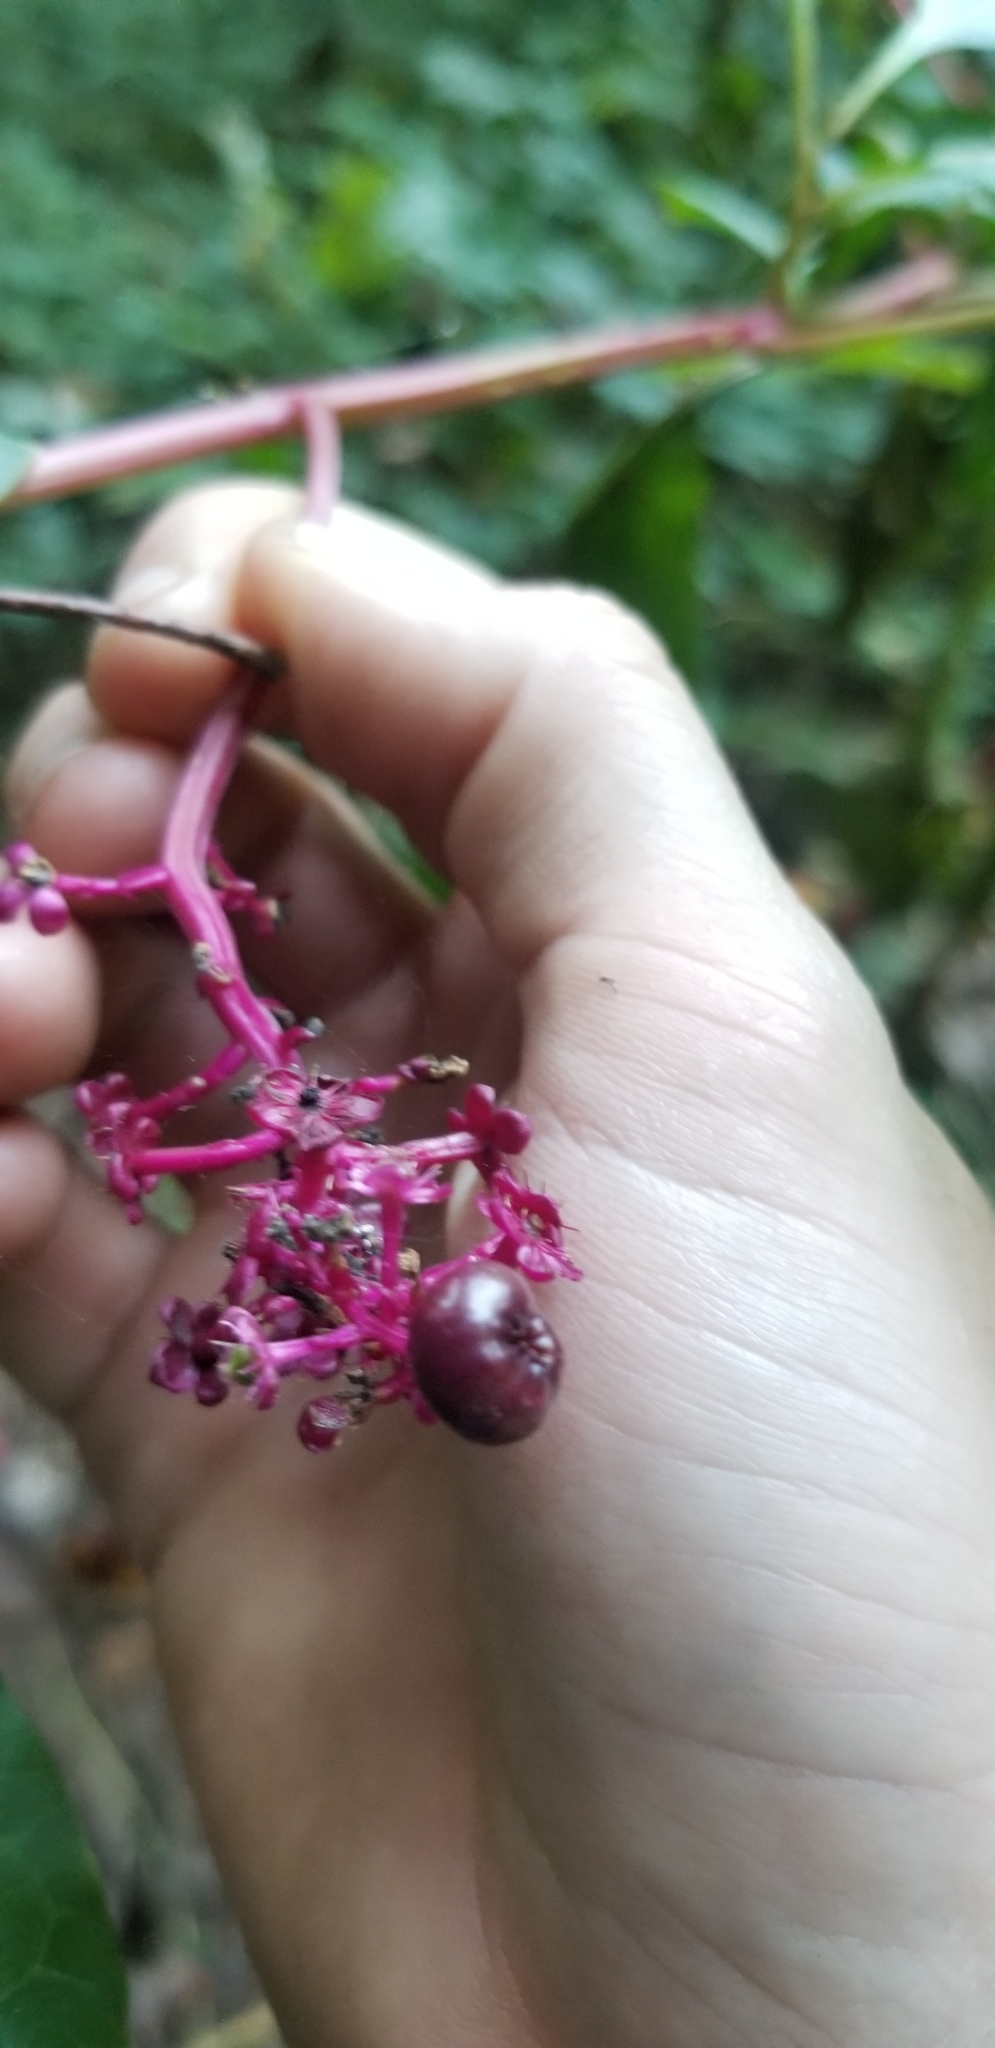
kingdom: Plantae
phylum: Tracheophyta
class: Magnoliopsida
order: Caryophyllales
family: Phytolaccaceae
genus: Phytolacca
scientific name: Phytolacca americana
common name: American pokeweed
